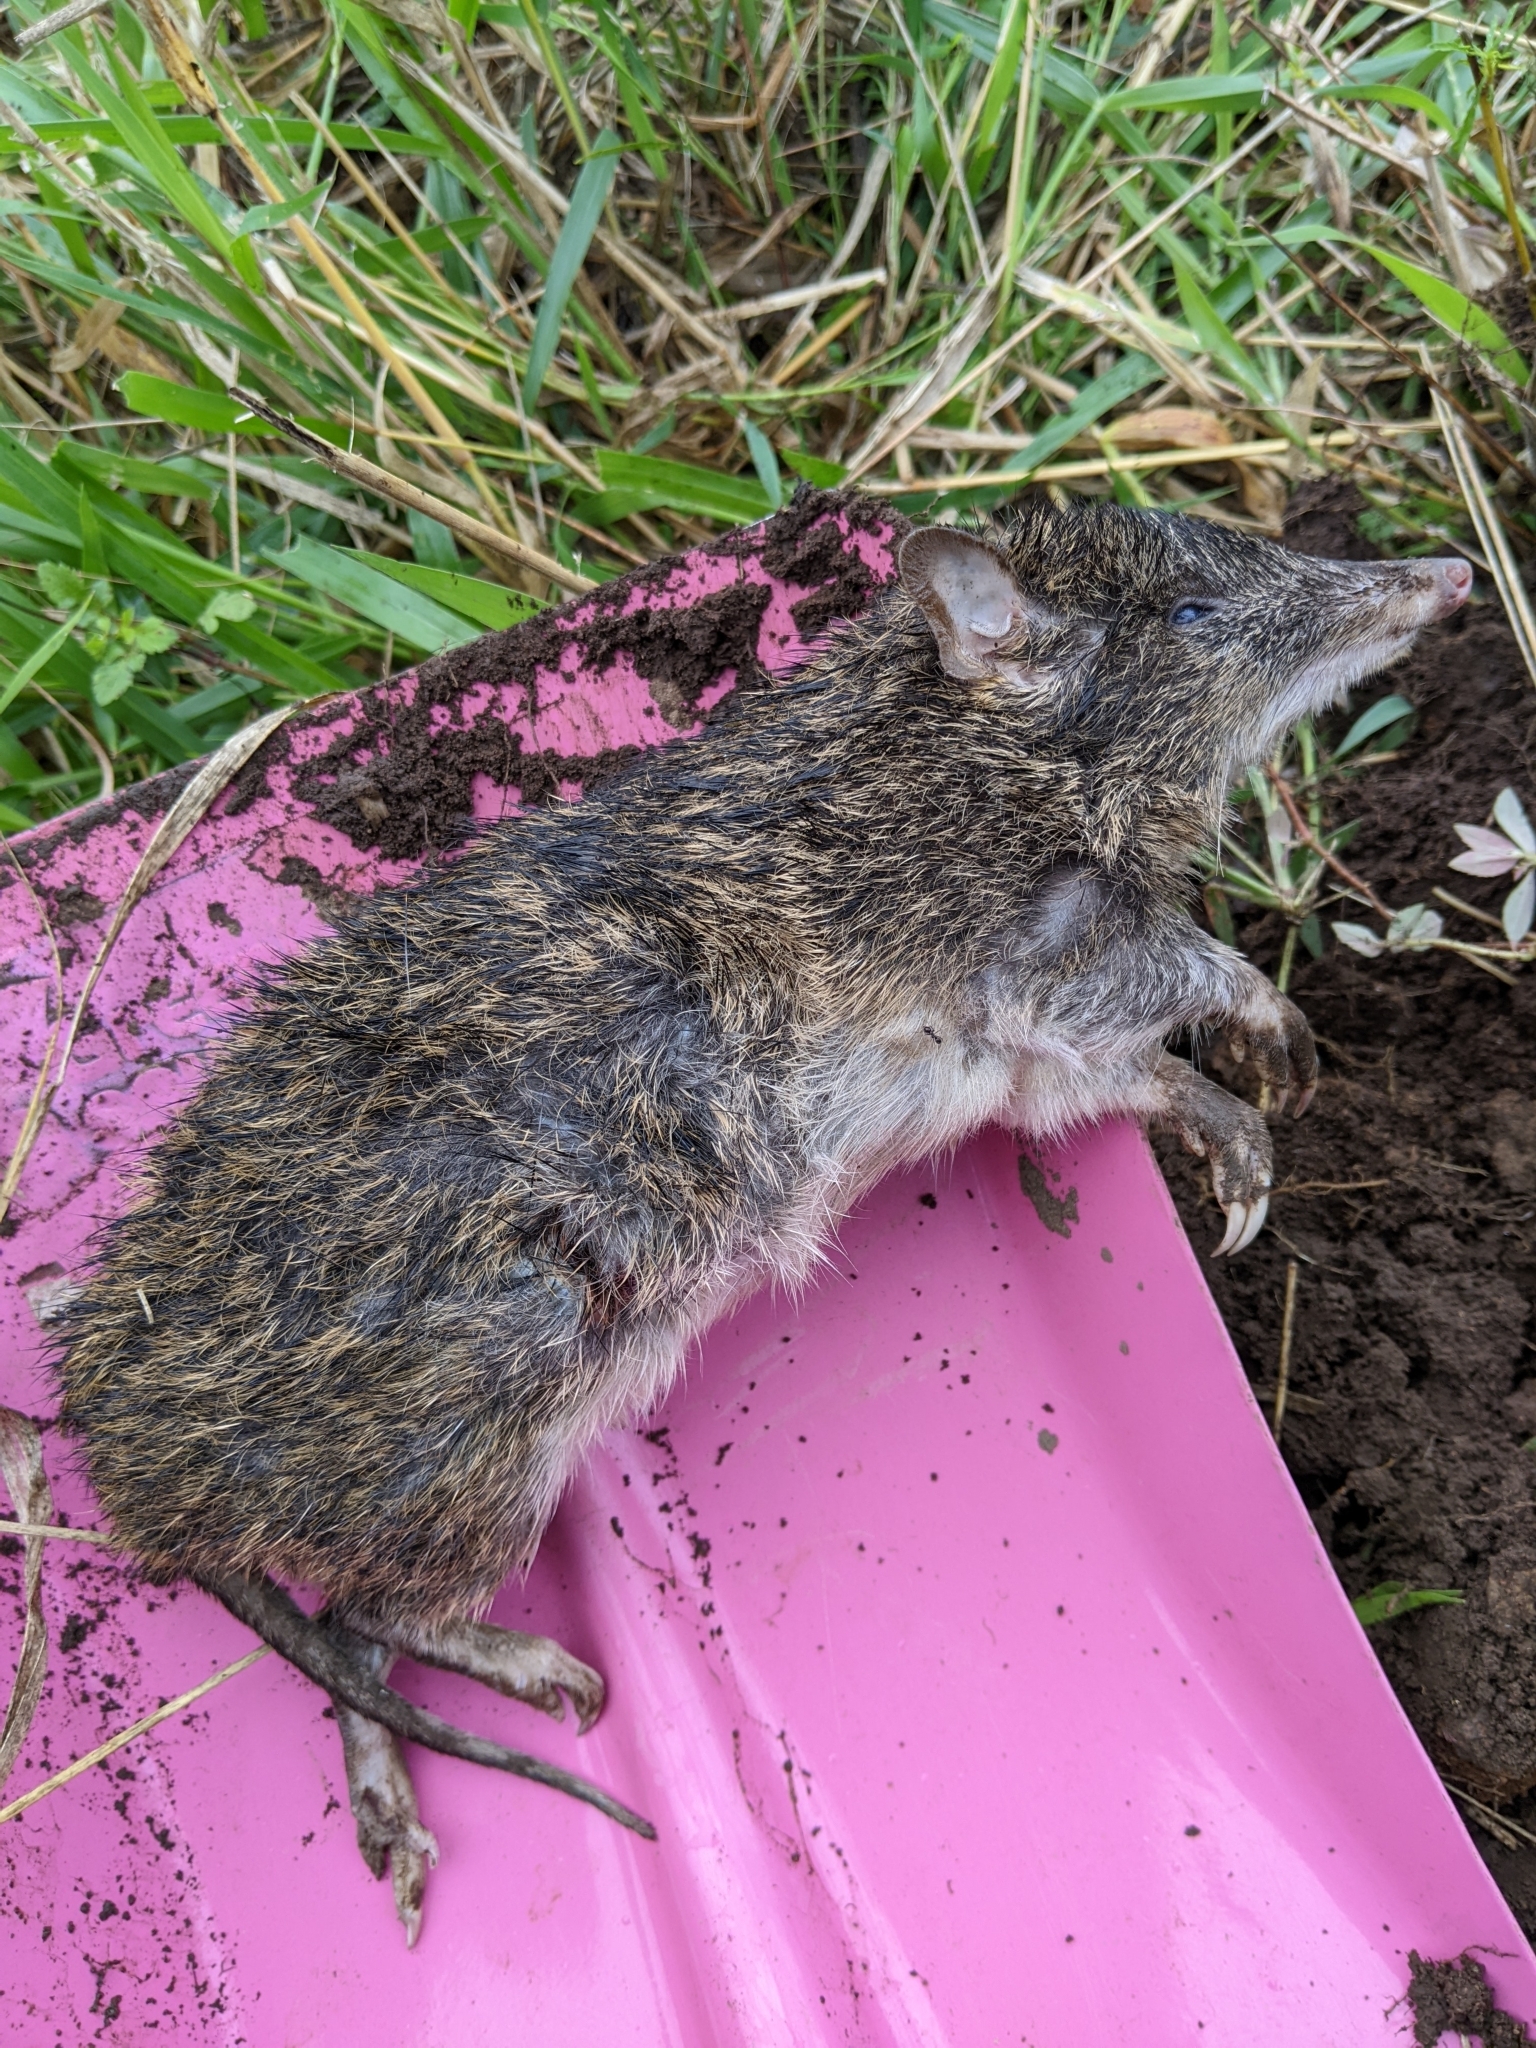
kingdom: Animalia
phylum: Chordata
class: Mammalia
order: Peramelemorphia
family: Peramelidae
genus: Isoodon
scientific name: Isoodon macrourus
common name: Northern brown bandicoot
